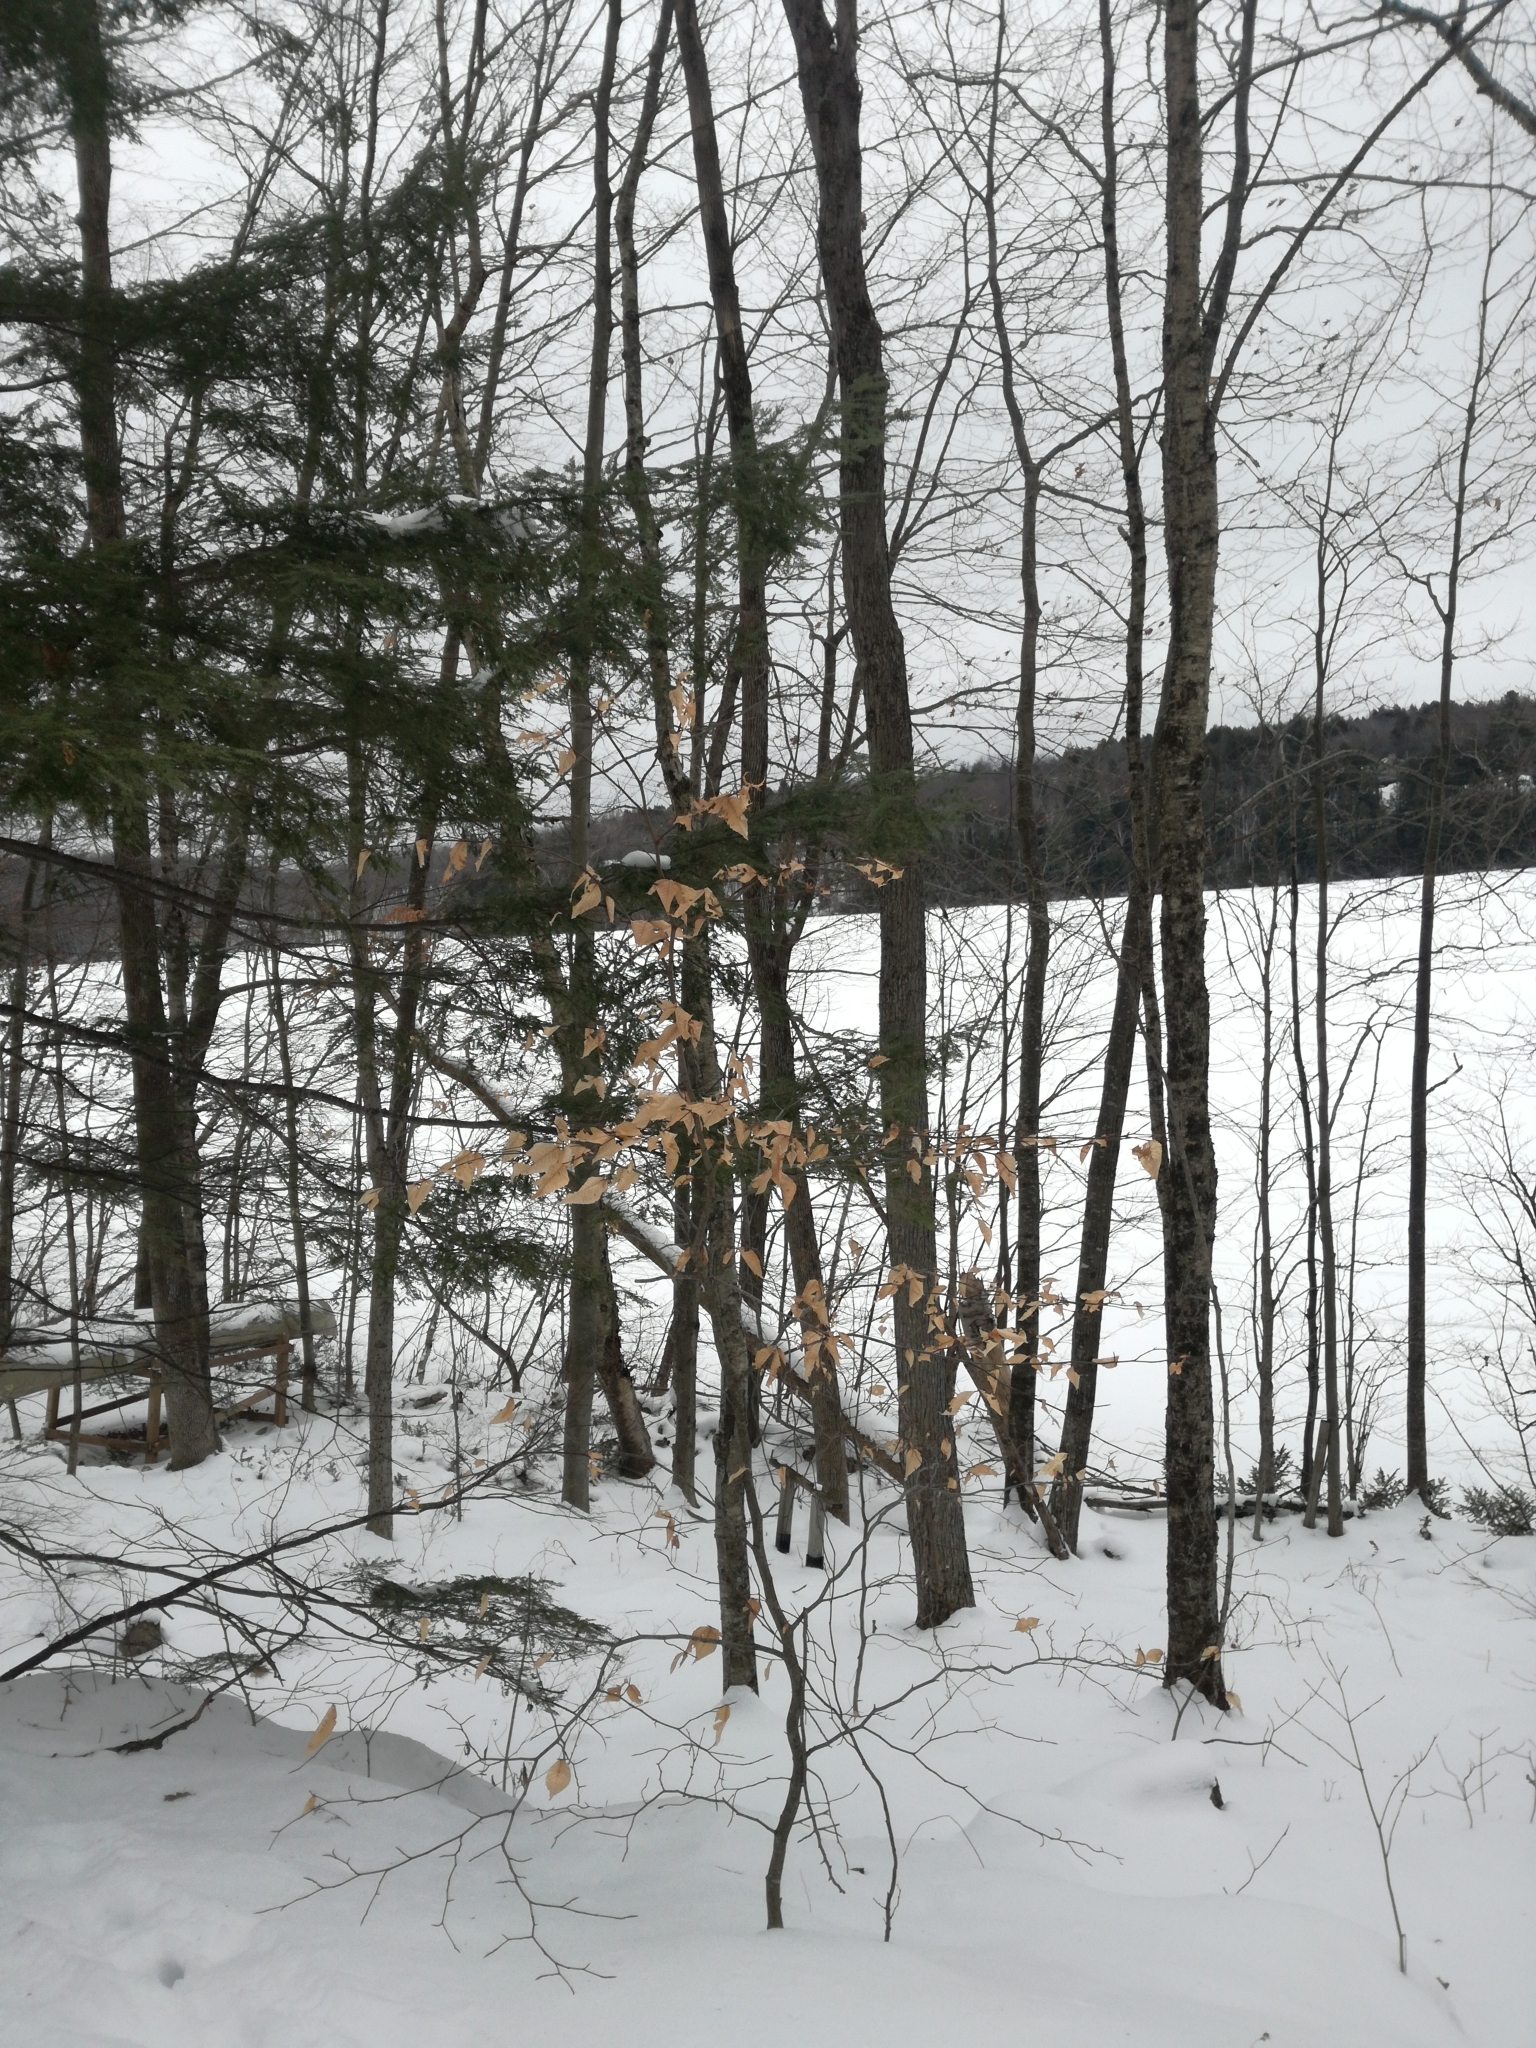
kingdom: Plantae
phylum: Tracheophyta
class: Magnoliopsida
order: Fagales
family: Fagaceae
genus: Fagus
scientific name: Fagus grandifolia
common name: American beech
